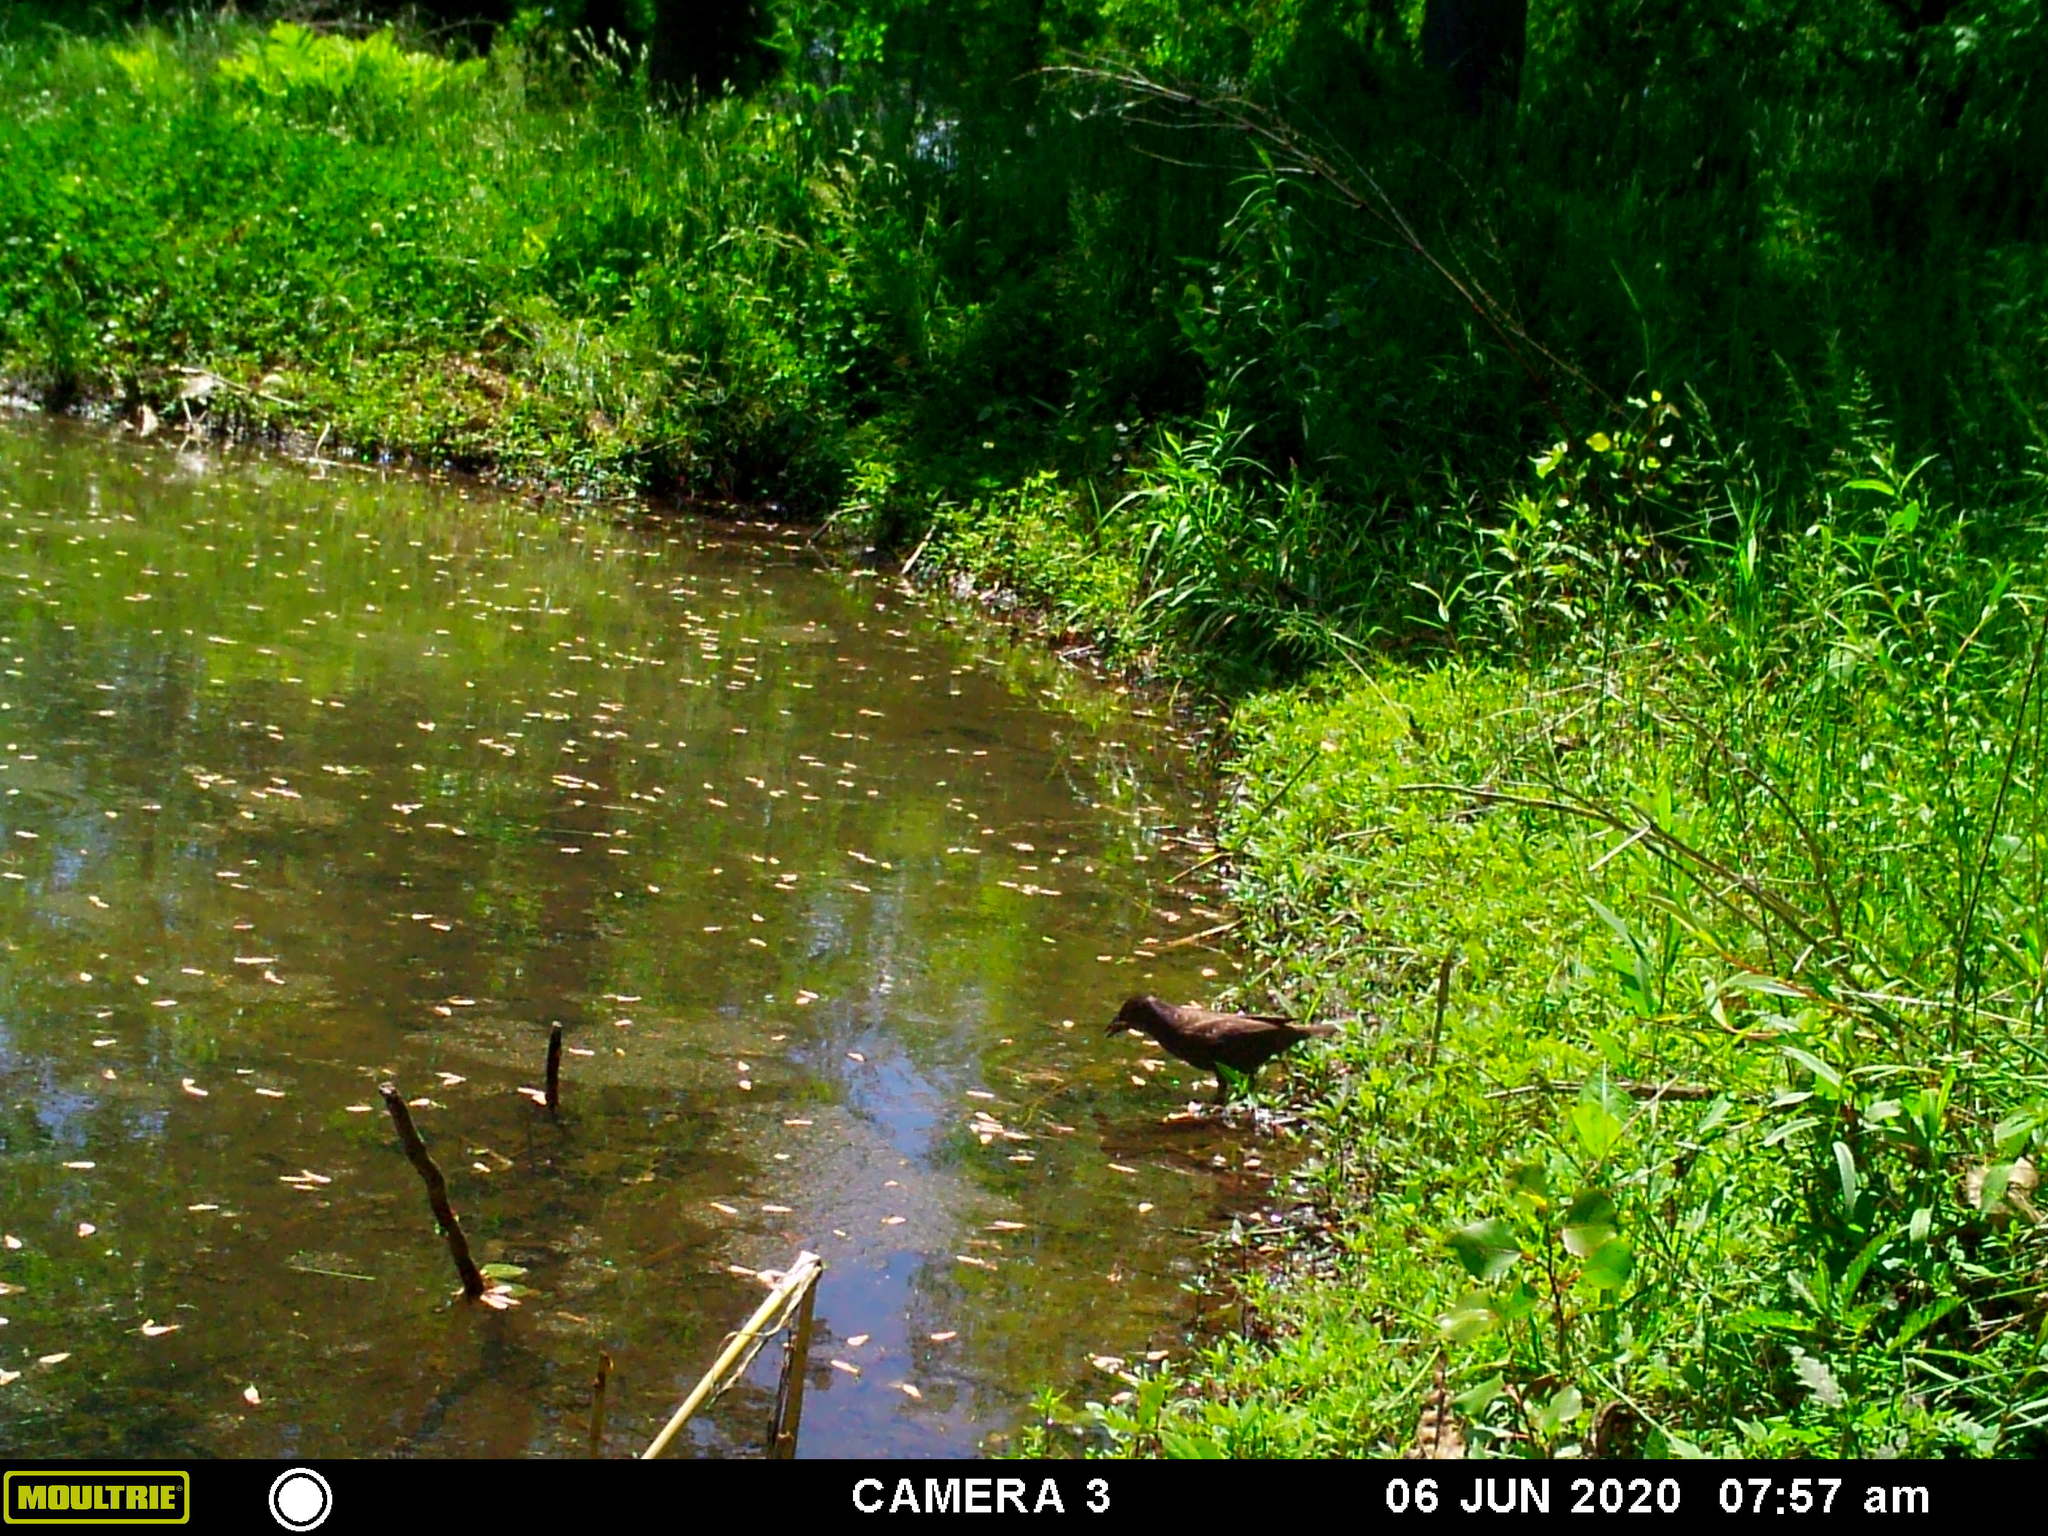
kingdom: Animalia
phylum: Chordata
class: Aves
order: Passeriformes
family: Icteridae
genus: Quiscalus
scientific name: Quiscalus quiscula
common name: Common grackle
